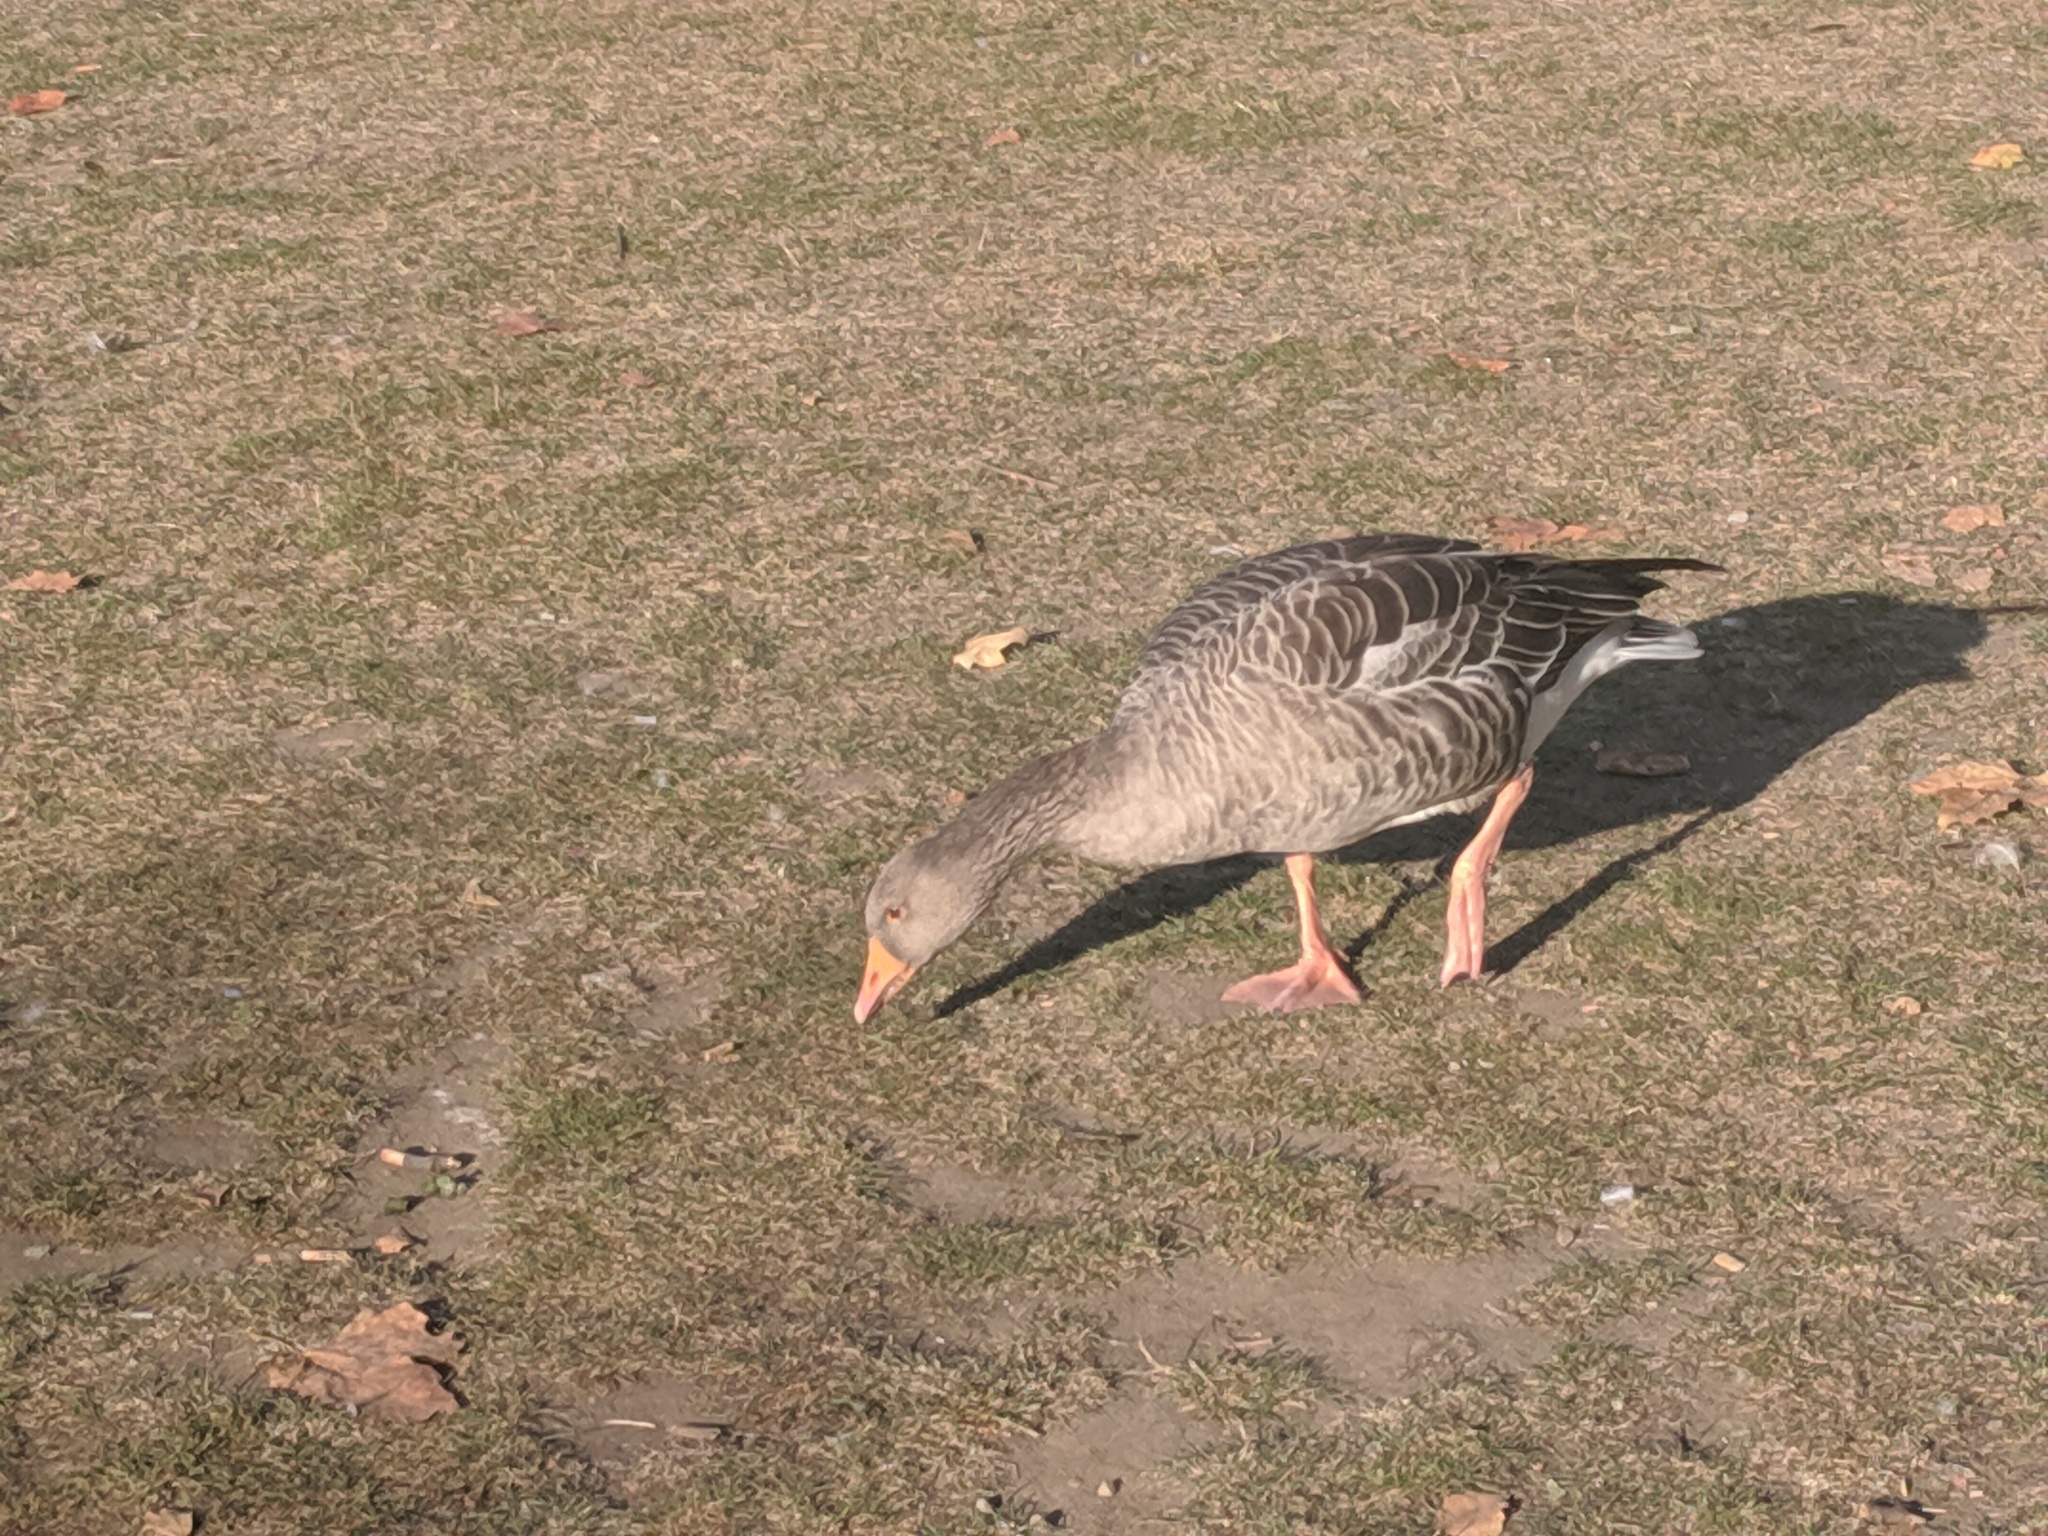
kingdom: Animalia
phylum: Chordata
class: Aves
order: Anseriformes
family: Anatidae
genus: Anser
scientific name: Anser anser
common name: Greylag goose
